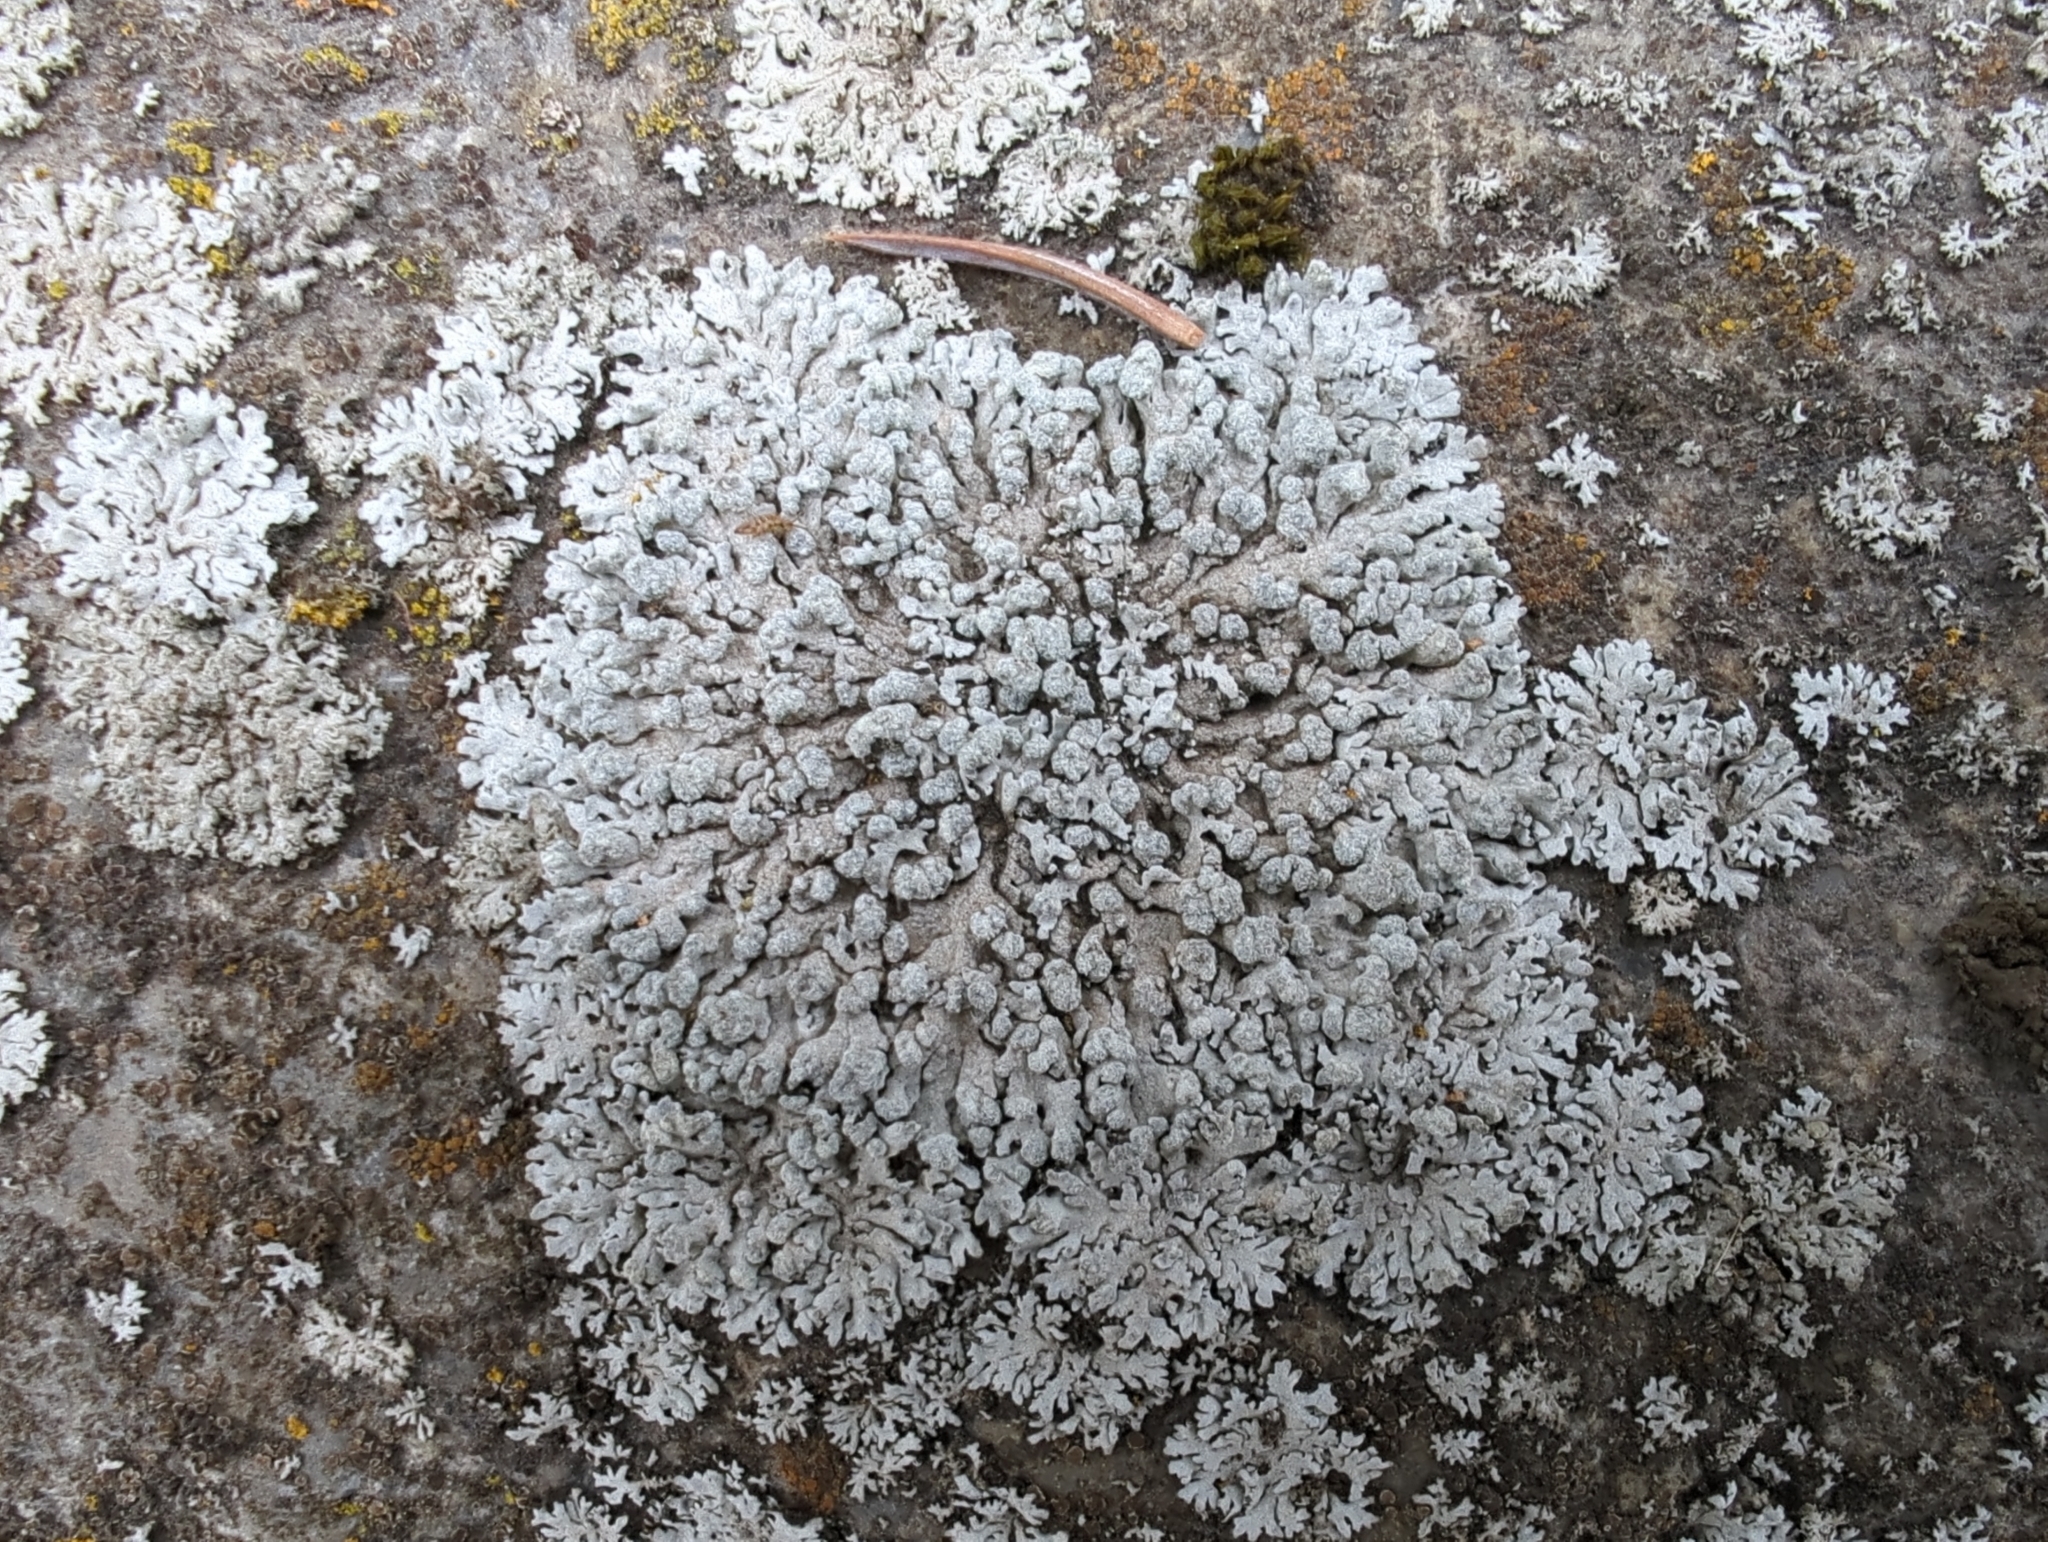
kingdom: Fungi
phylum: Ascomycota
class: Lecanoromycetes
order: Caliciales
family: Physciaceae
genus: Physcia
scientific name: Physcia caesia
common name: Blue-gray rosette lichen
